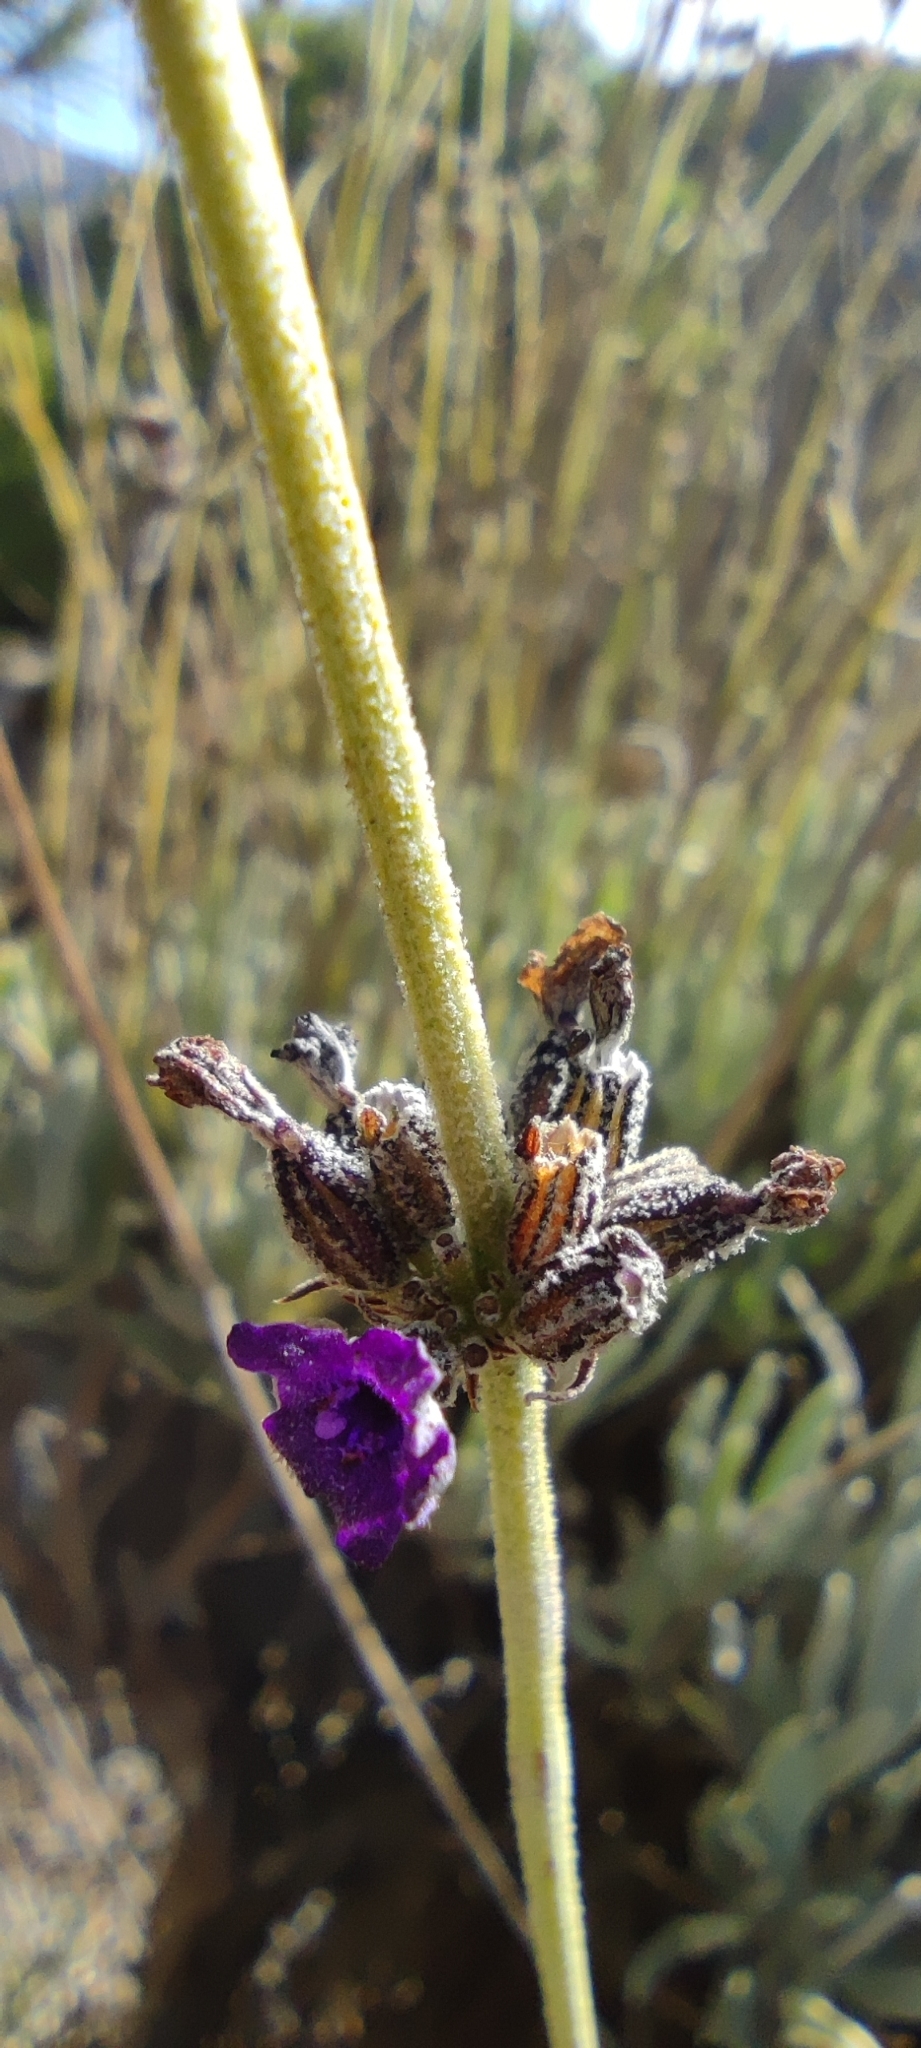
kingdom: Plantae
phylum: Tracheophyta
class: Magnoliopsida
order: Lamiales
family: Lamiaceae
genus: Lavandula
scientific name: Lavandula lanata
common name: Woolly lavender
